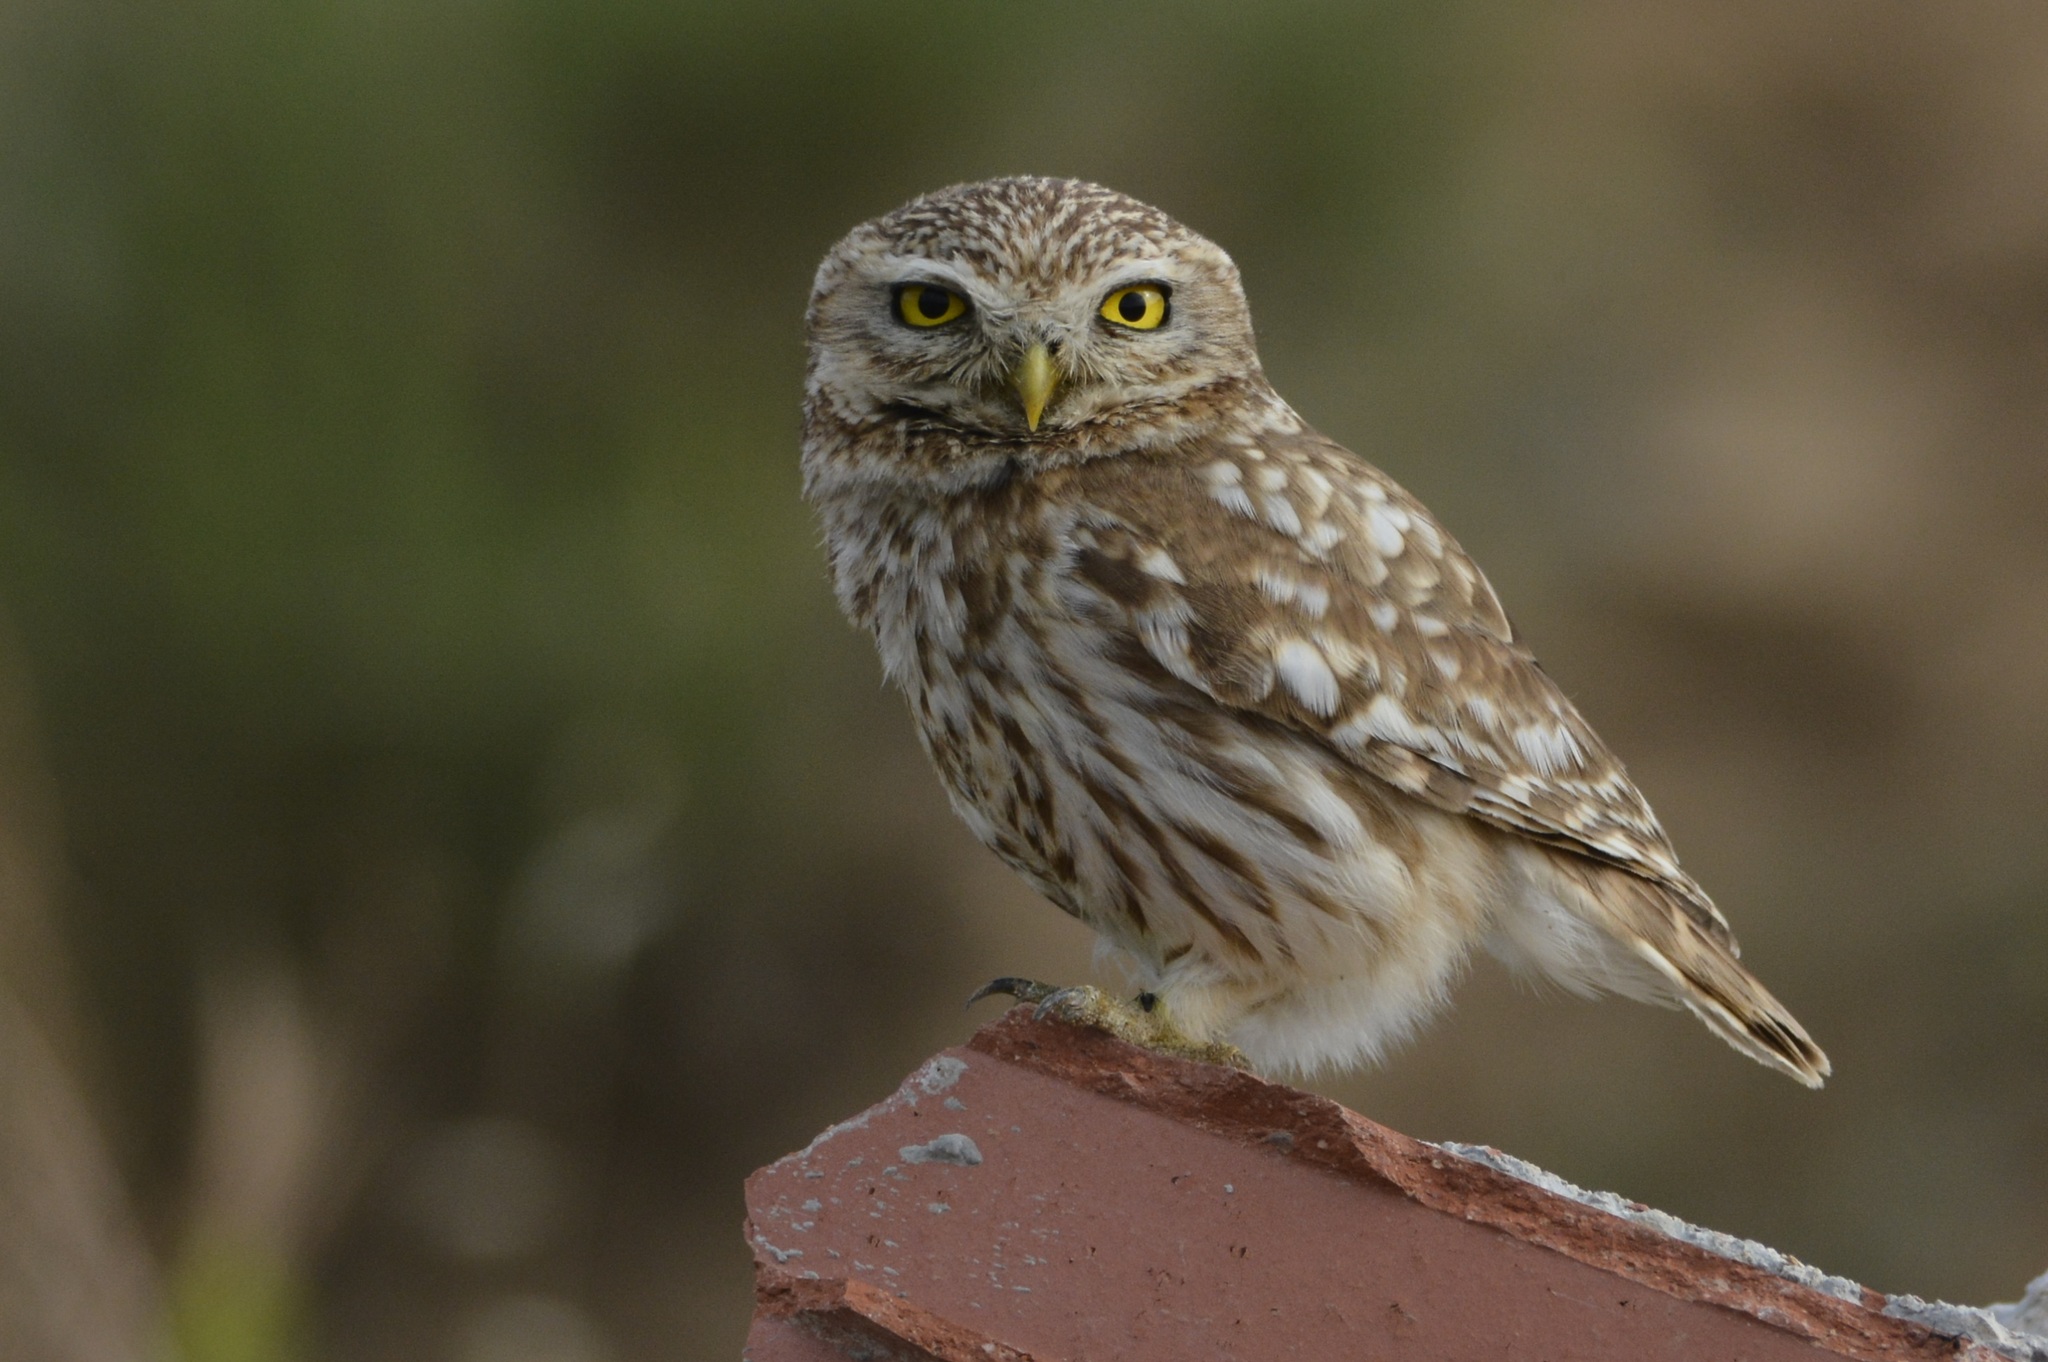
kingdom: Animalia
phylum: Chordata
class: Aves
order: Strigiformes
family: Strigidae
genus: Athene
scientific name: Athene noctua
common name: Little owl
